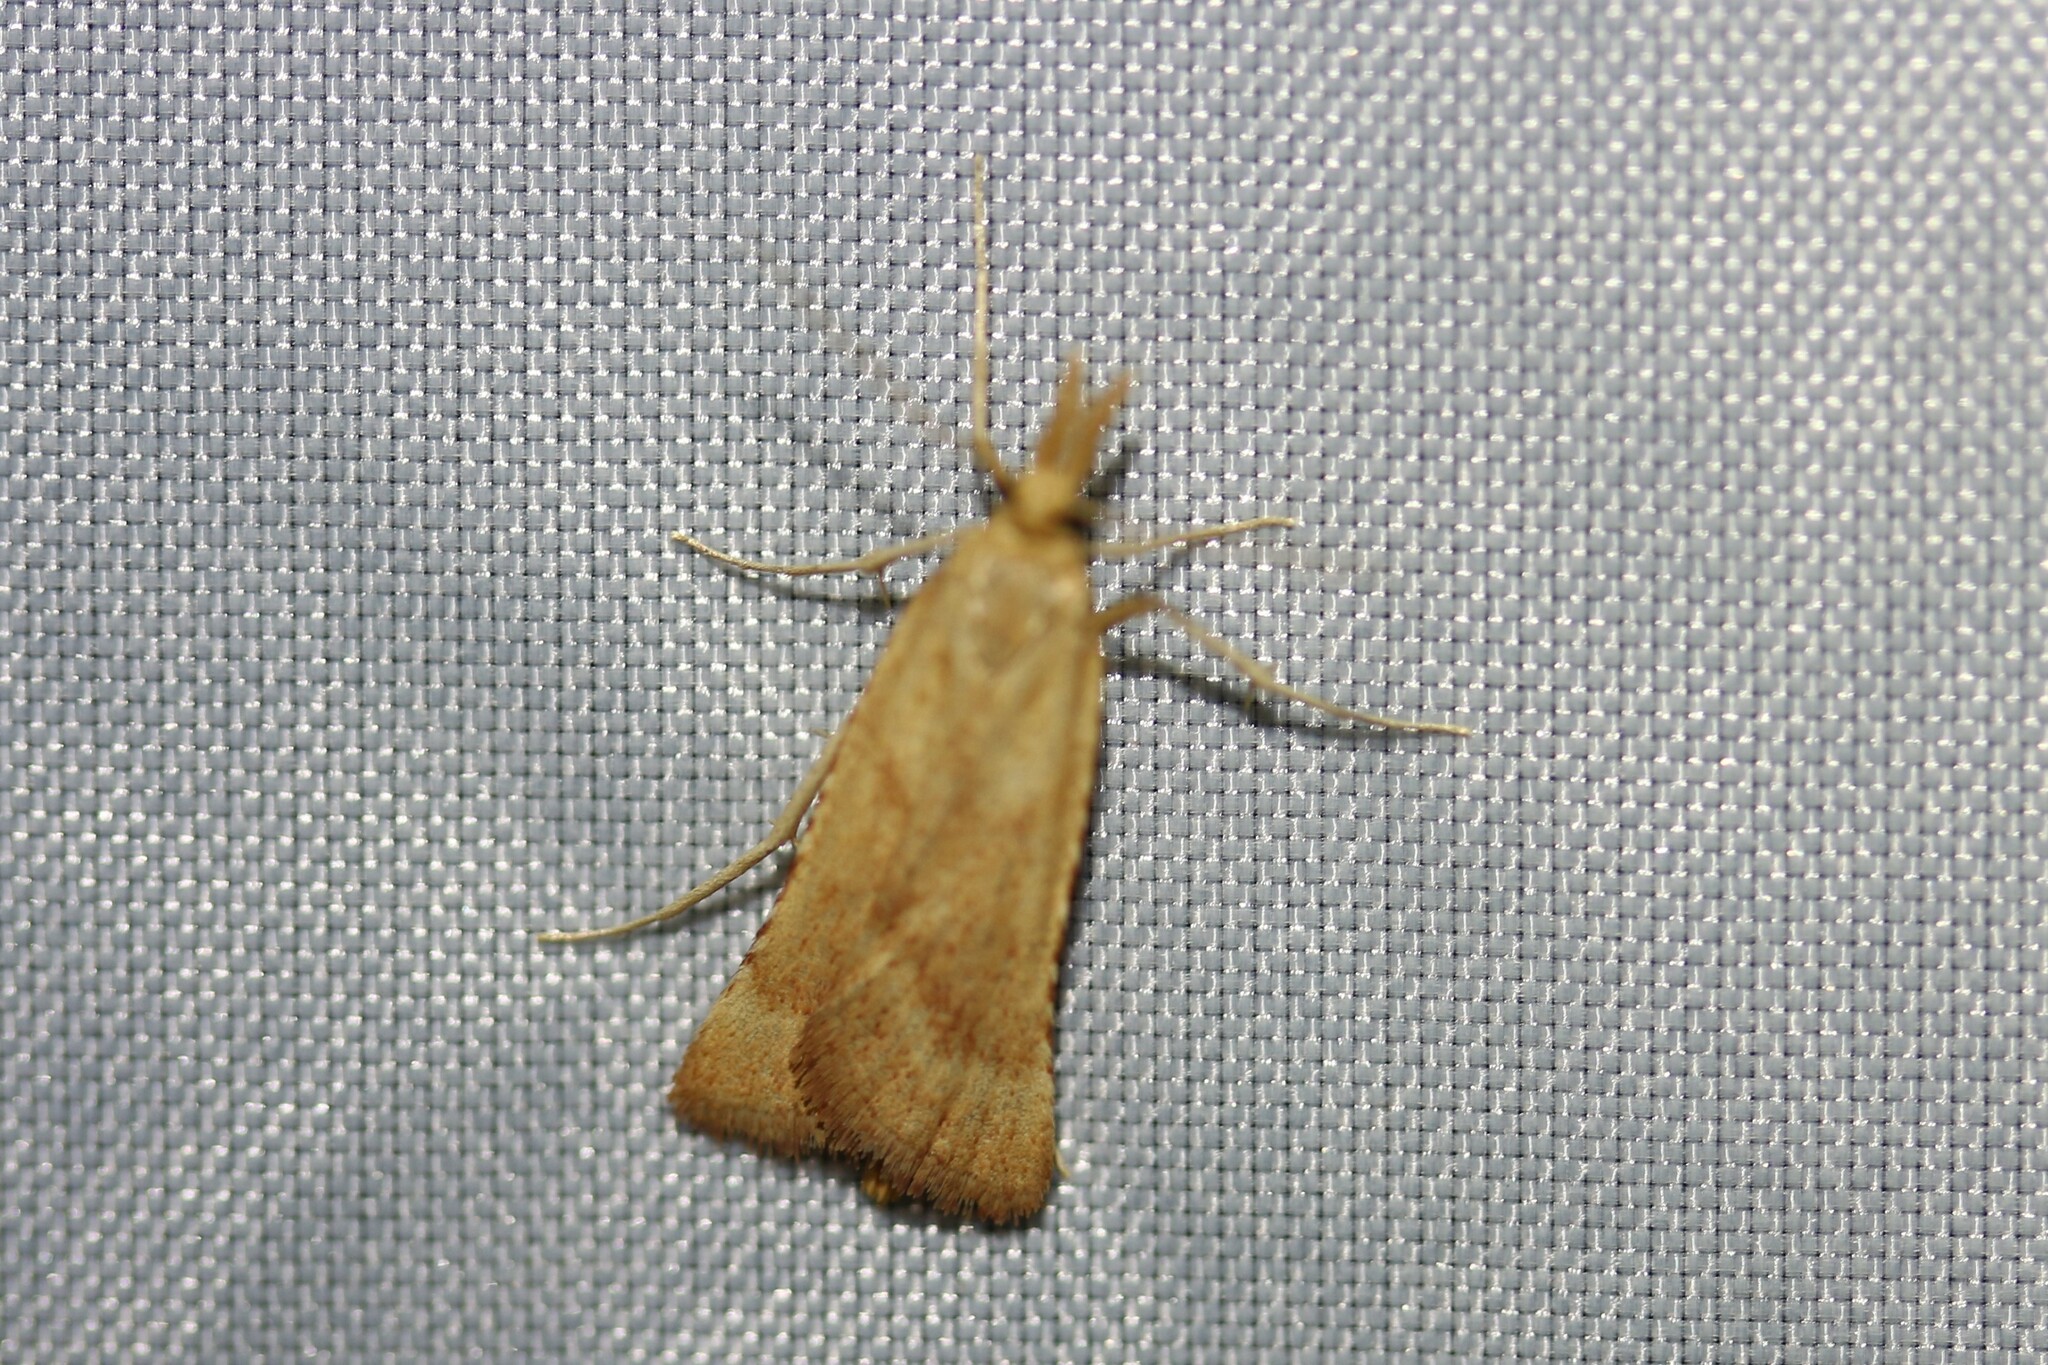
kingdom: Animalia
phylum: Arthropoda
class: Insecta
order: Lepidoptera
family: Pyralidae
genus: Synaphe
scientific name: Synaphe punctalis
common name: Long-legged tabby
